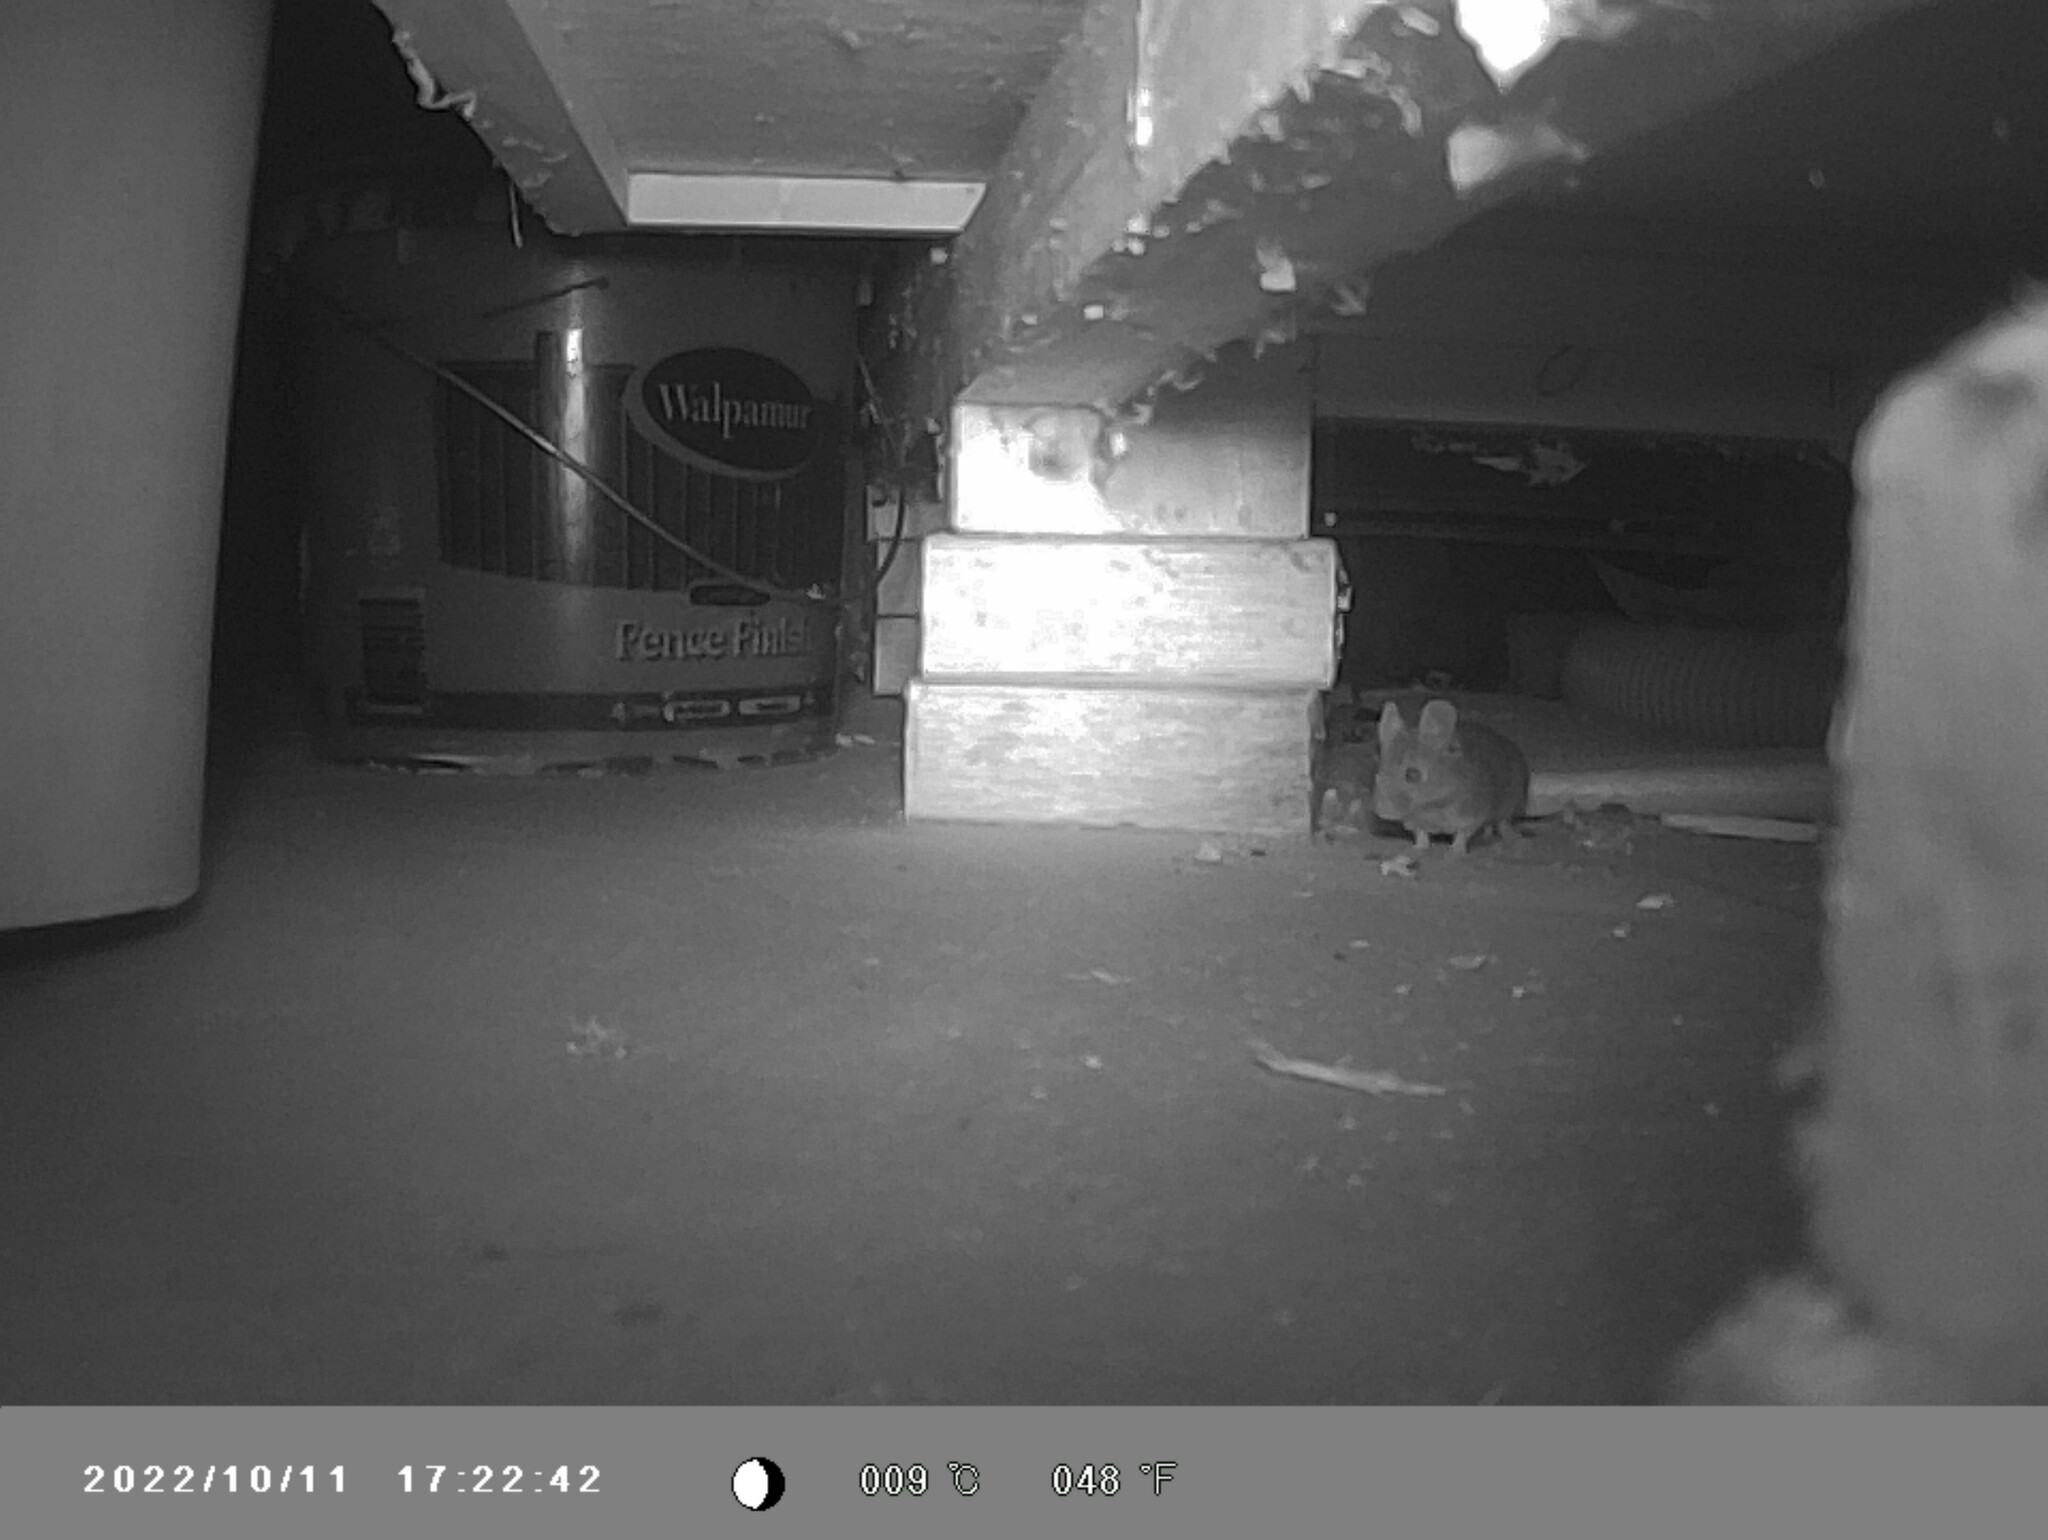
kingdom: Animalia
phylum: Chordata
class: Mammalia
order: Rodentia
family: Muridae
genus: Mus
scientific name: Mus musculus
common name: House mouse
